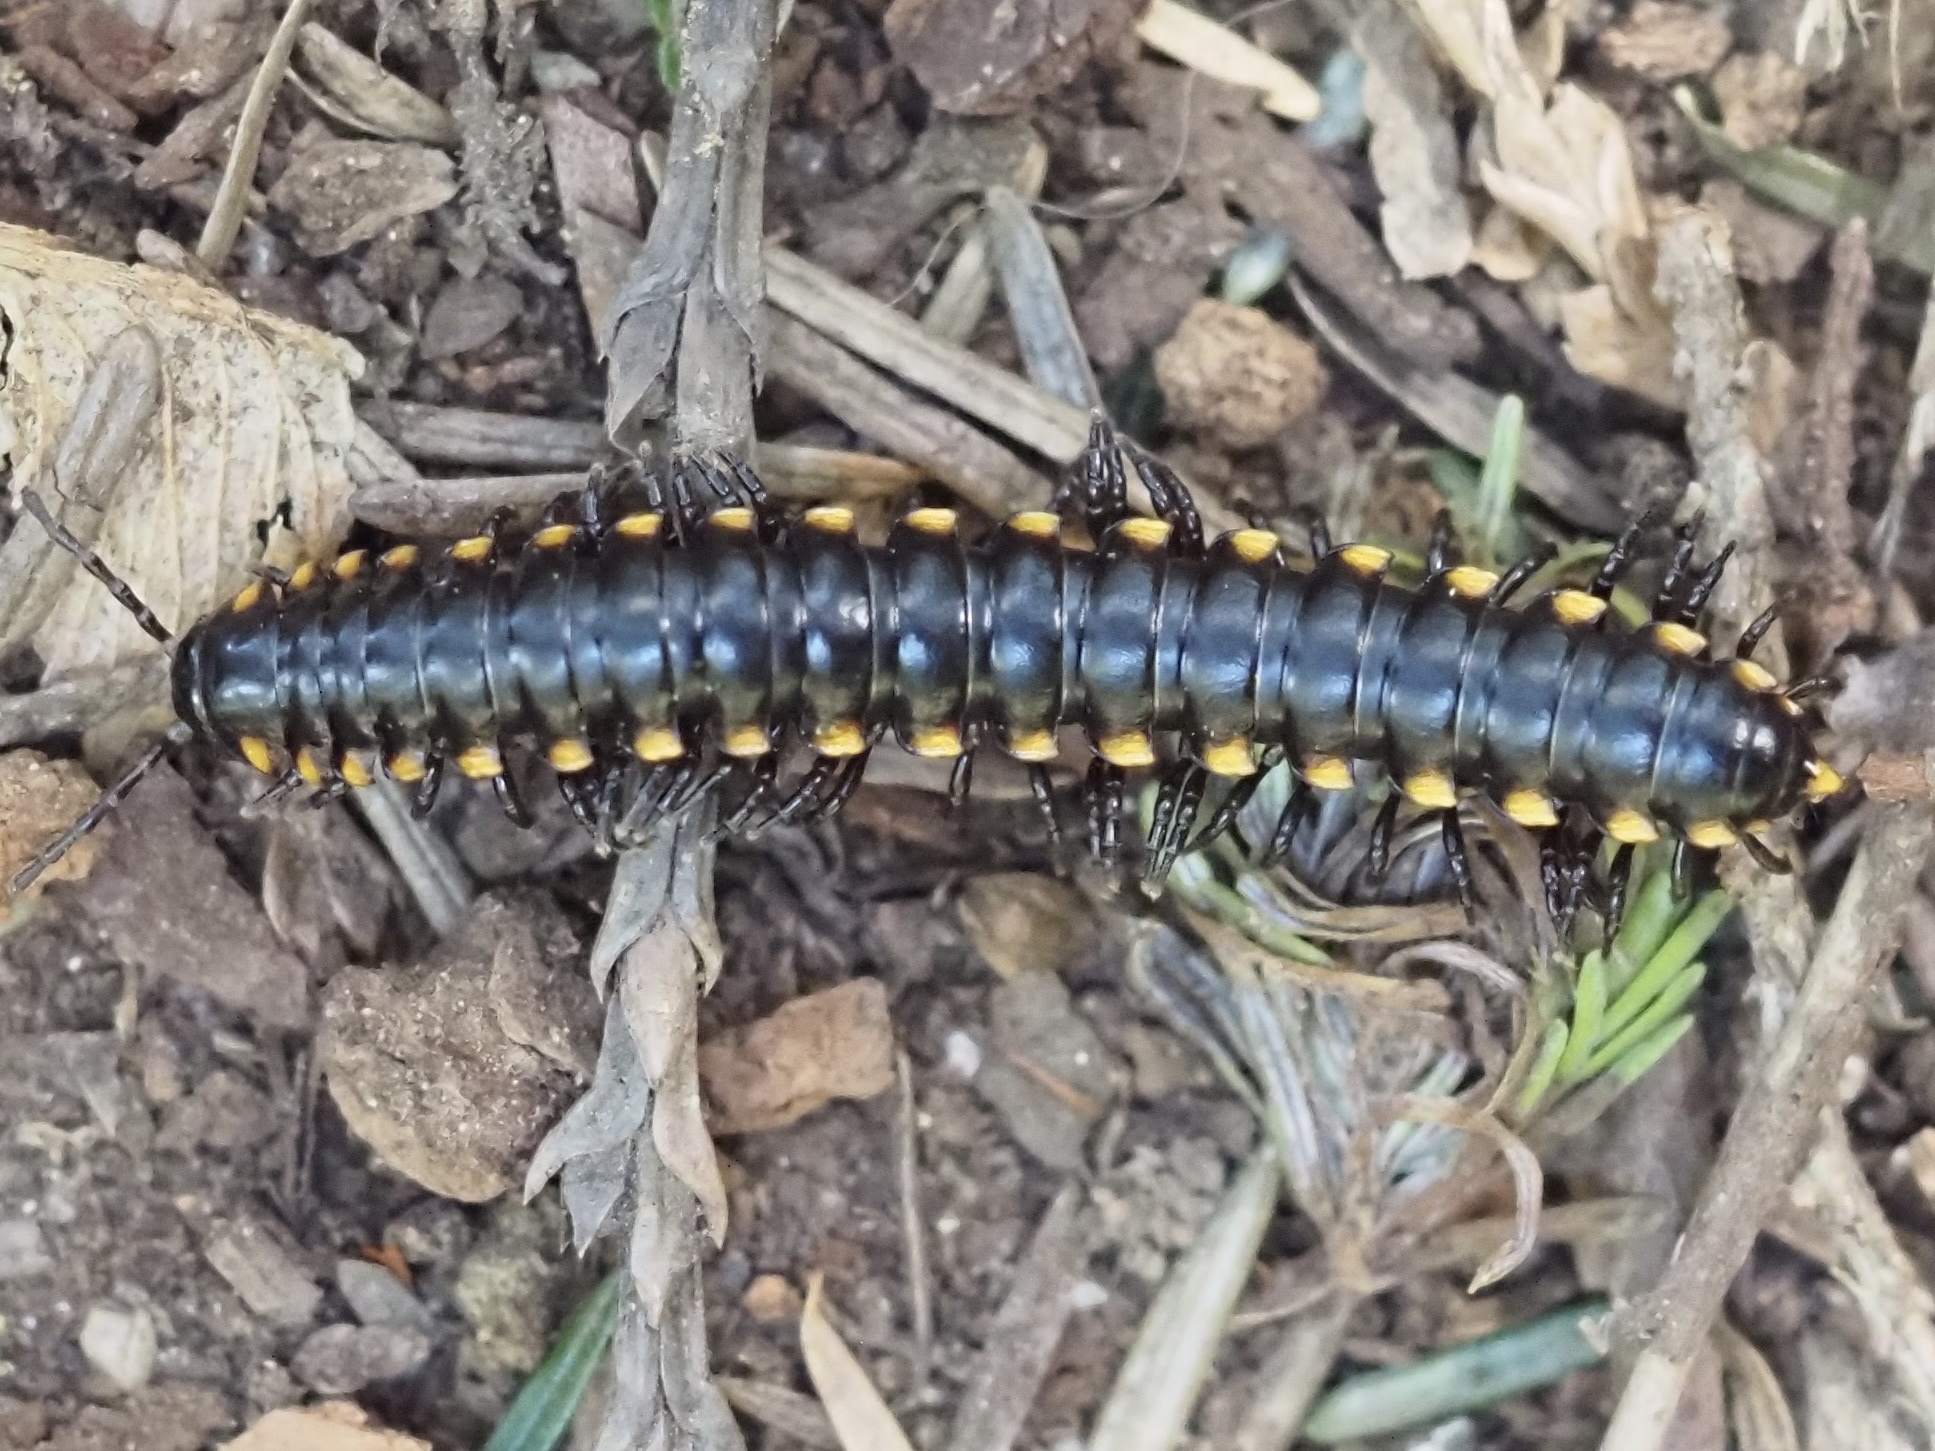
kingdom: Animalia
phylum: Arthropoda
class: Diplopoda
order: Polydesmida
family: Xystodesmidae
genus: Harpaphe
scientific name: Harpaphe haydeniana
